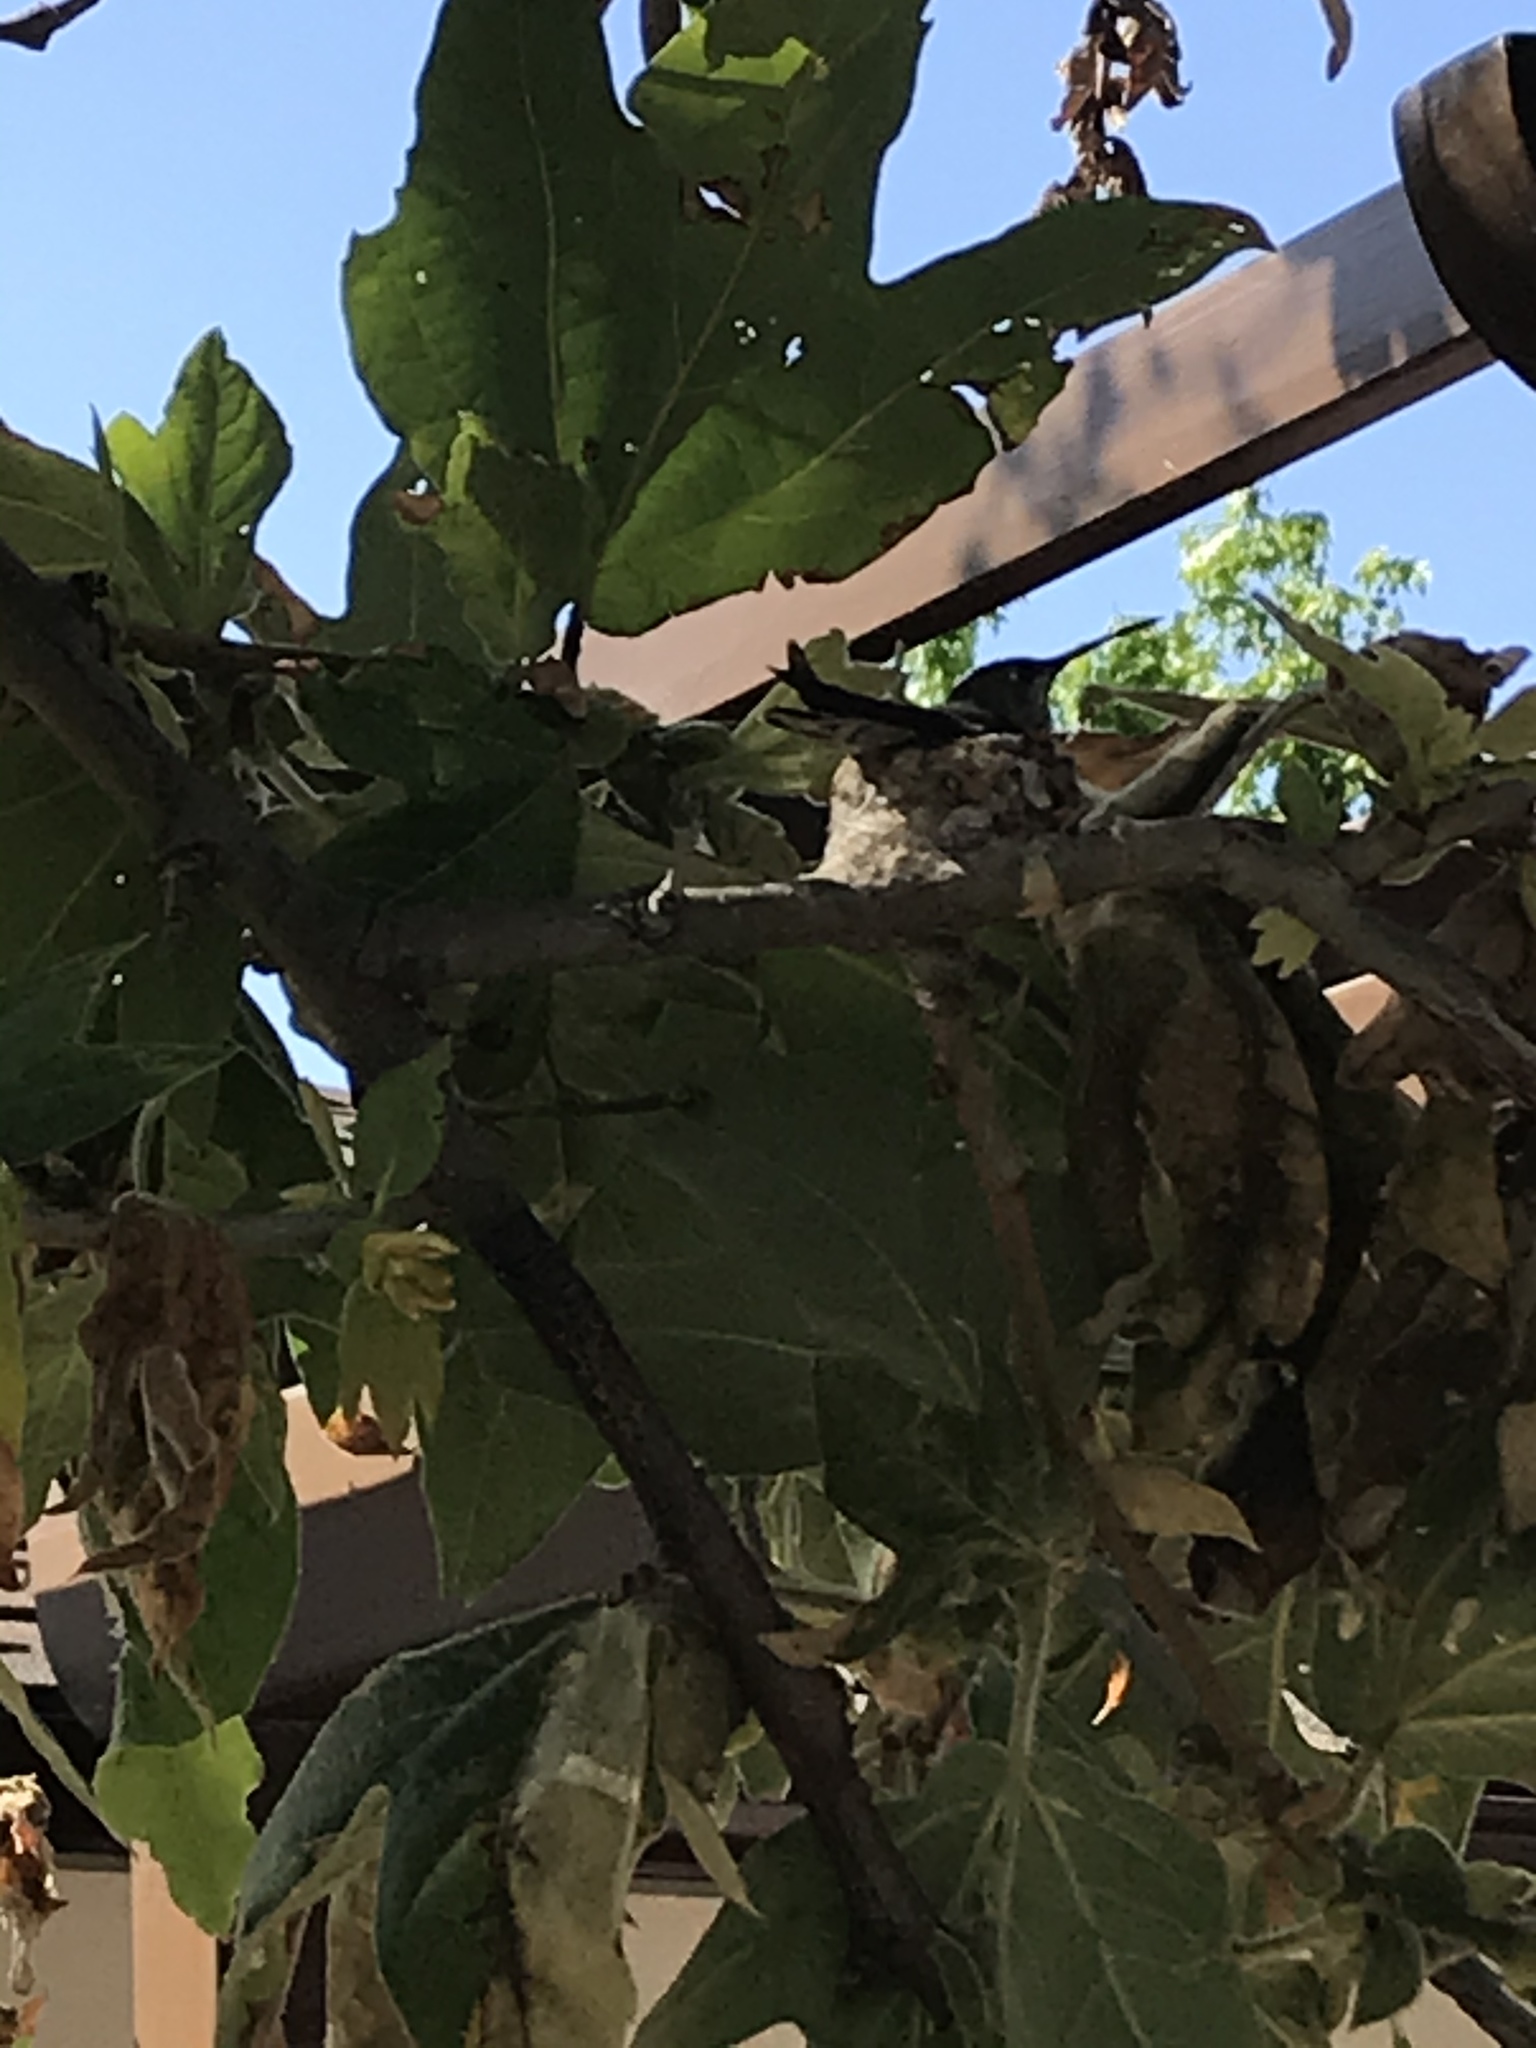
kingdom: Animalia
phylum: Chordata
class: Aves
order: Apodiformes
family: Trochilidae
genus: Calypte
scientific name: Calypte anna
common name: Anna's hummingbird
